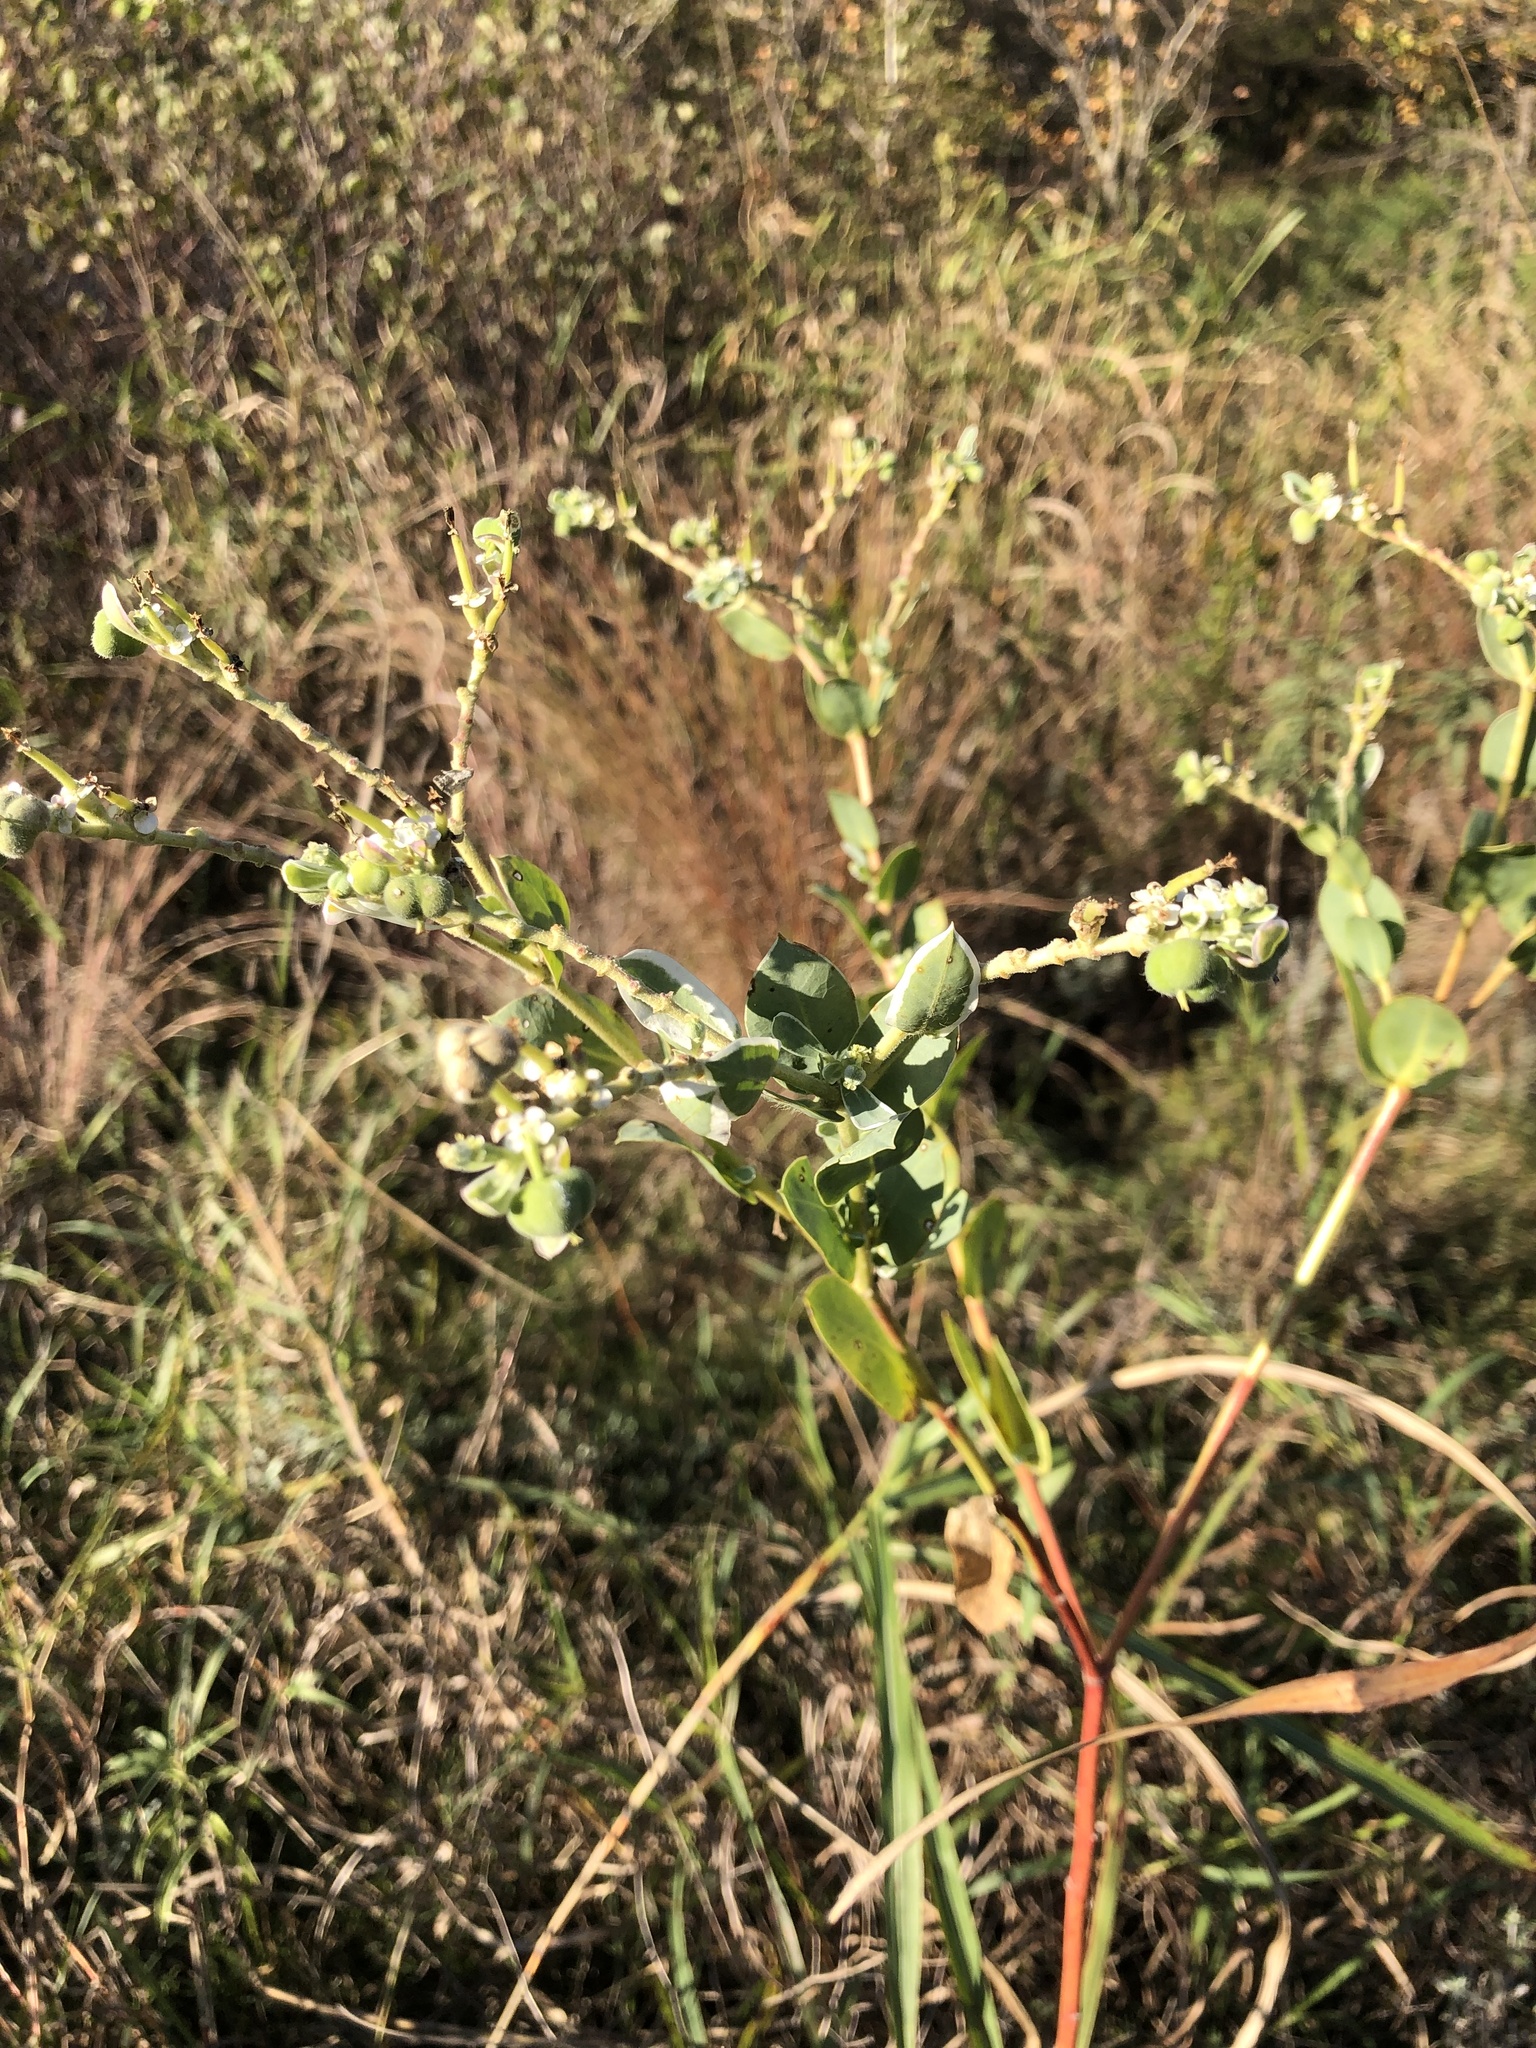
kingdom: Plantae
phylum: Tracheophyta
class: Magnoliopsida
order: Malpighiales
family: Euphorbiaceae
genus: Euphorbia
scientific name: Euphorbia marginata
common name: Ghostweed
